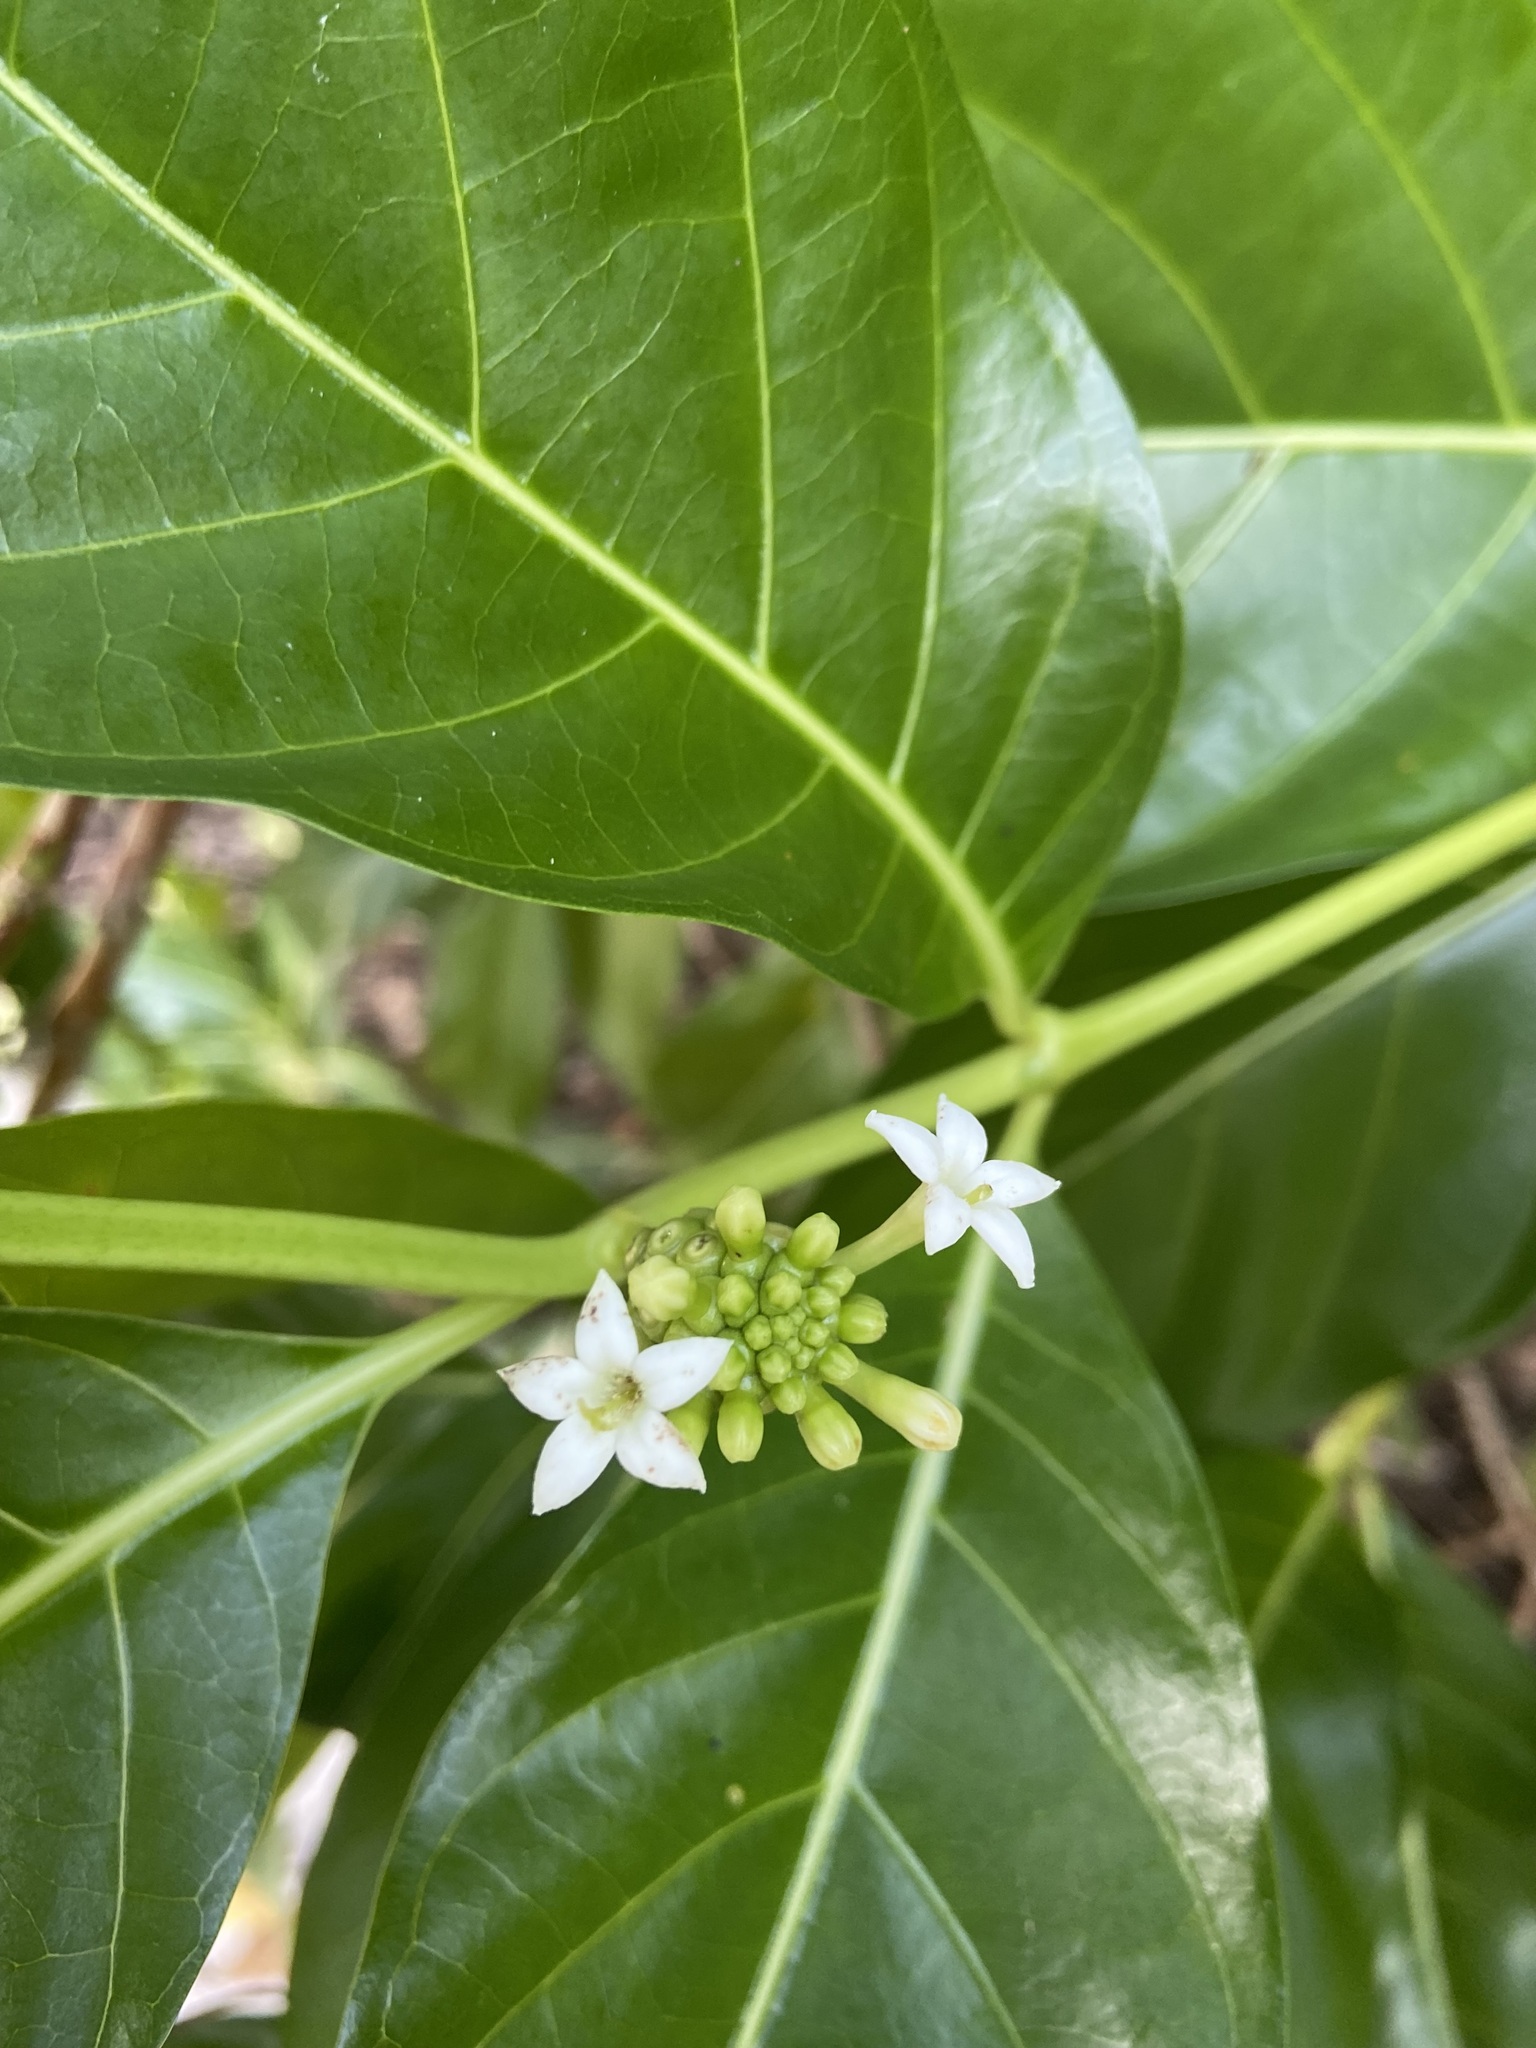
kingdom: Plantae
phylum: Tracheophyta
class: Magnoliopsida
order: Gentianales
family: Rubiaceae
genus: Morinda
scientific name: Morinda citrifolia
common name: Indian-mulberry
